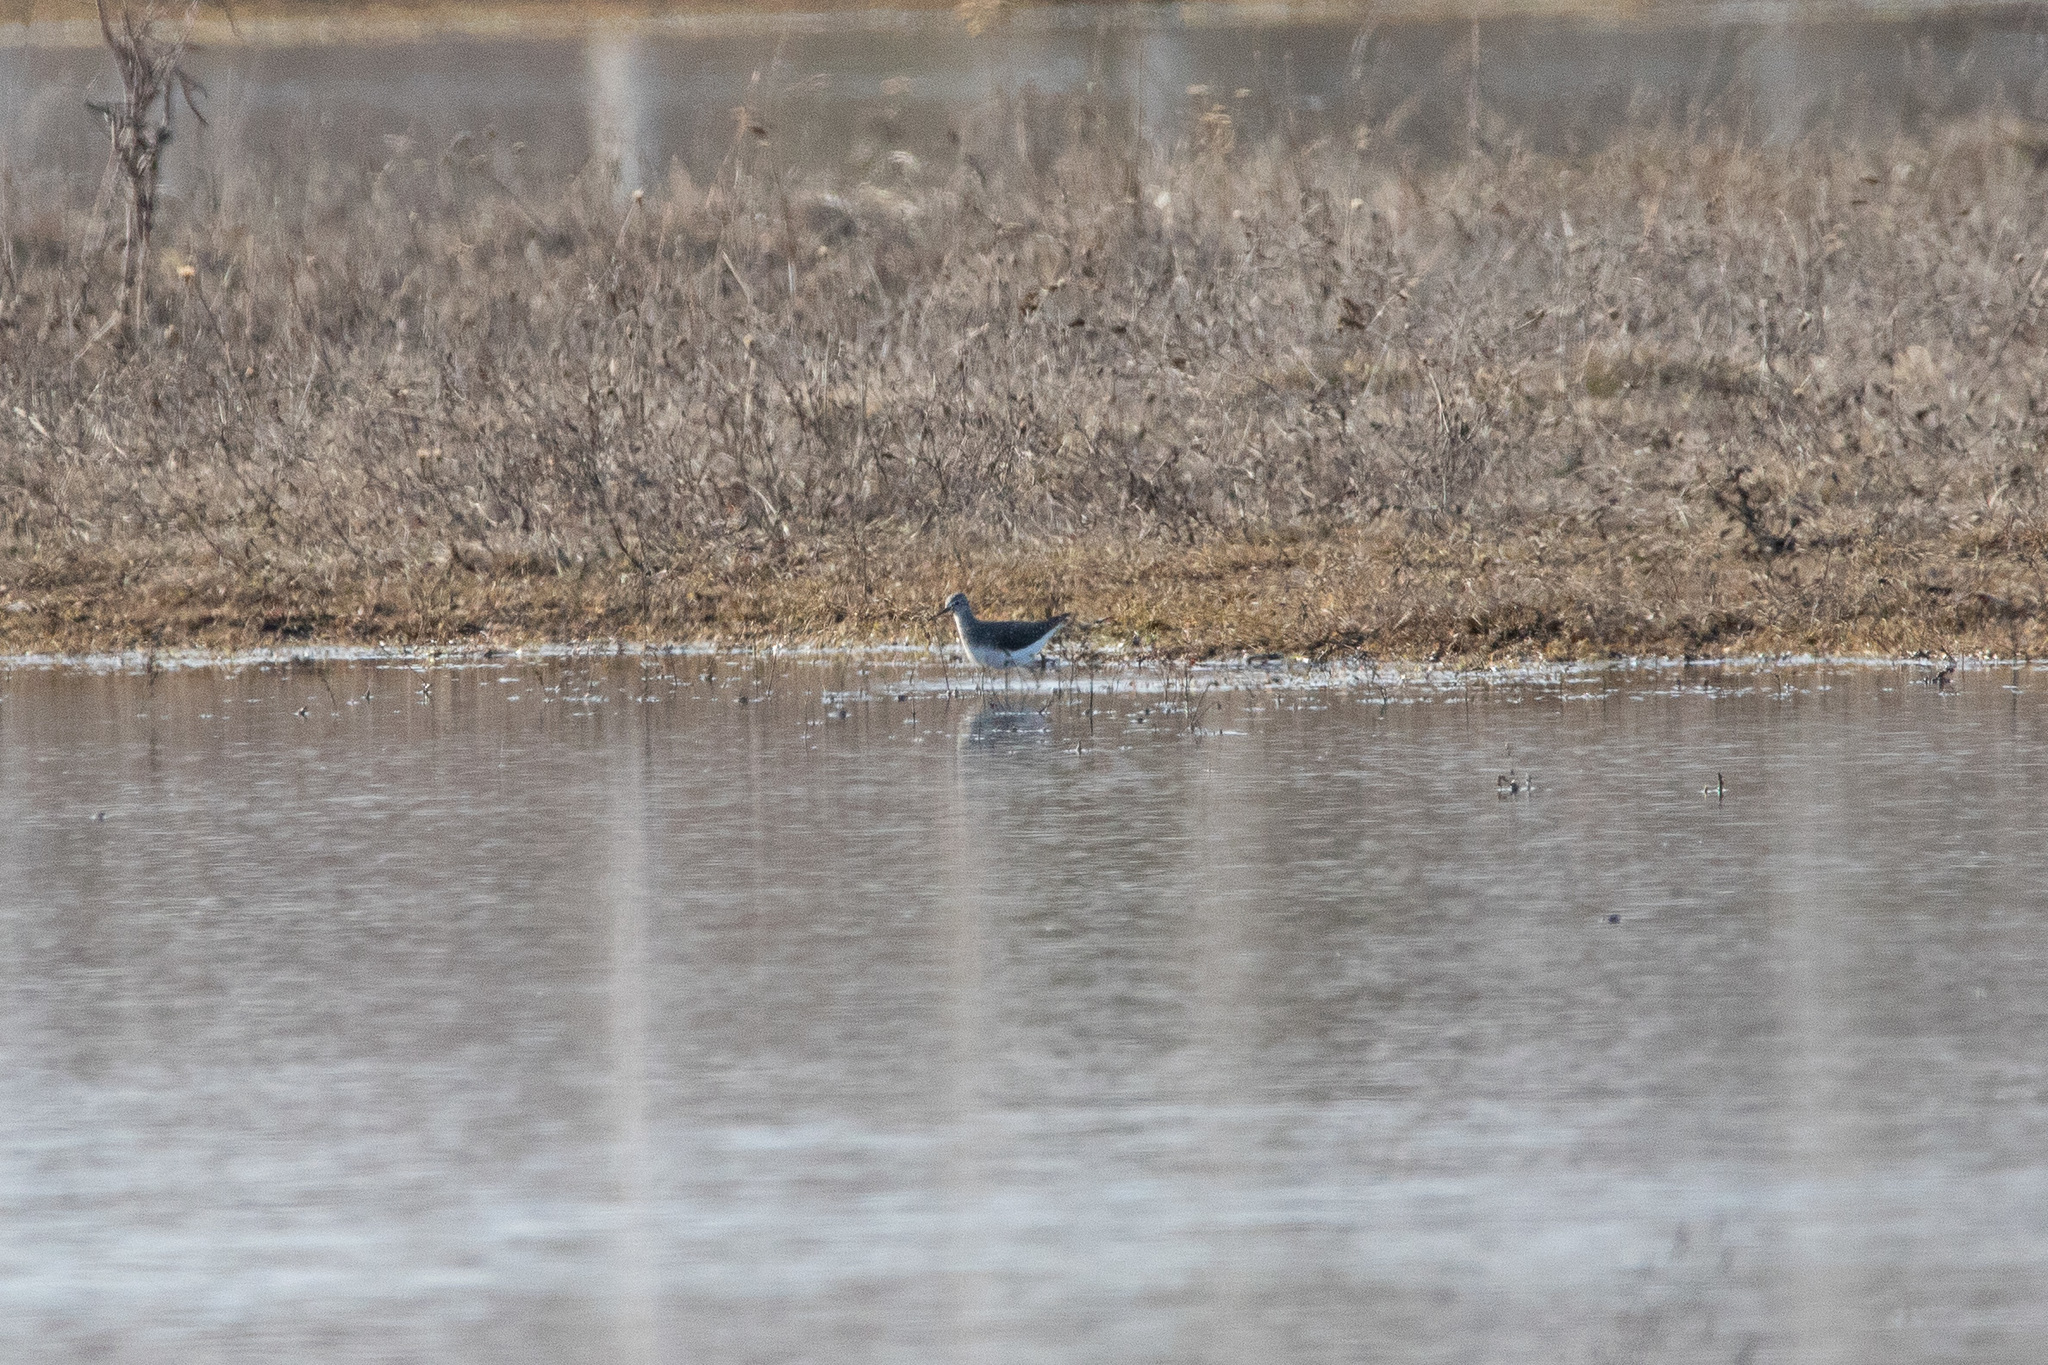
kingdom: Animalia
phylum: Chordata
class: Aves
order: Charadriiformes
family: Scolopacidae
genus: Tringa
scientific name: Tringa ochropus
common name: Green sandpiper
